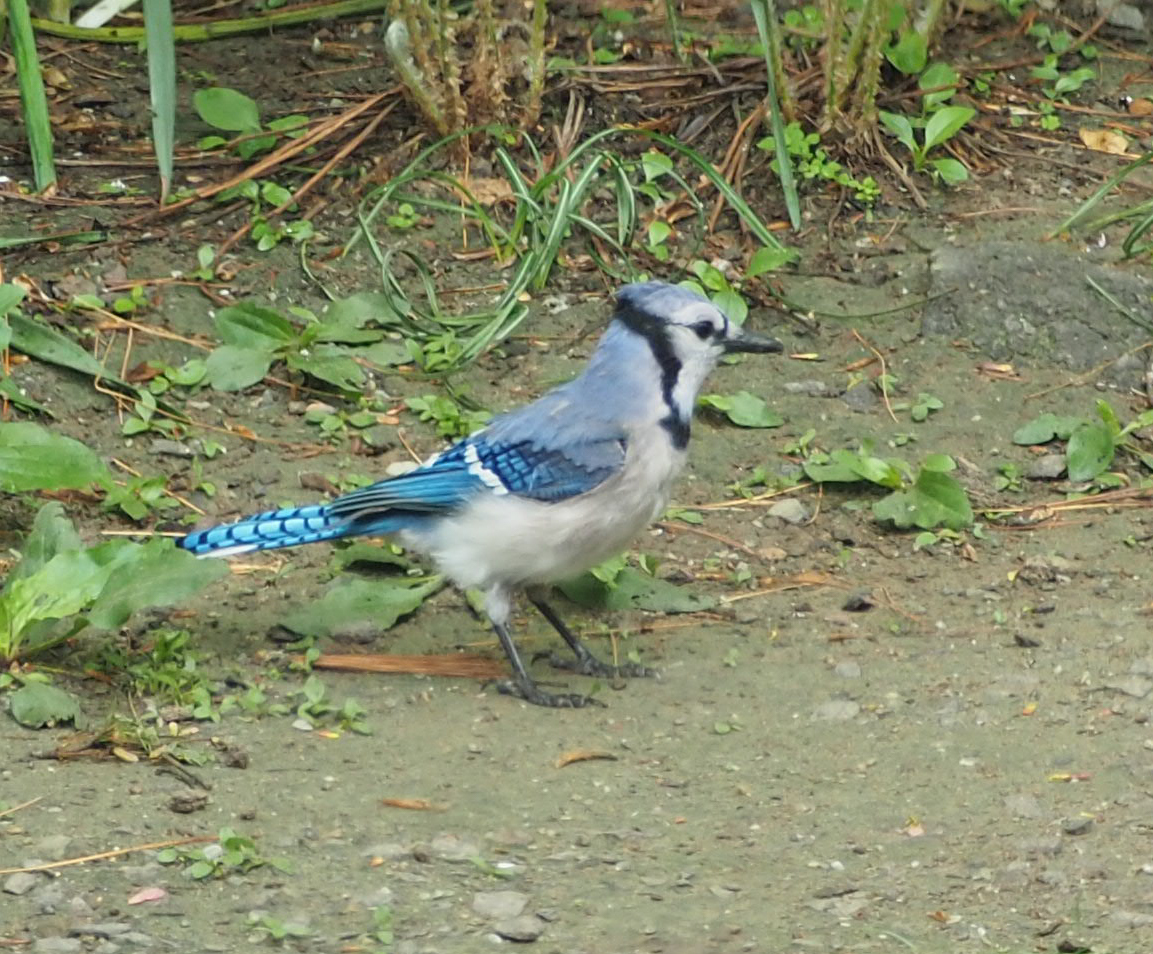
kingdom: Animalia
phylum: Chordata
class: Aves
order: Passeriformes
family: Corvidae
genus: Cyanocitta
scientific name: Cyanocitta cristata
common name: Blue jay
